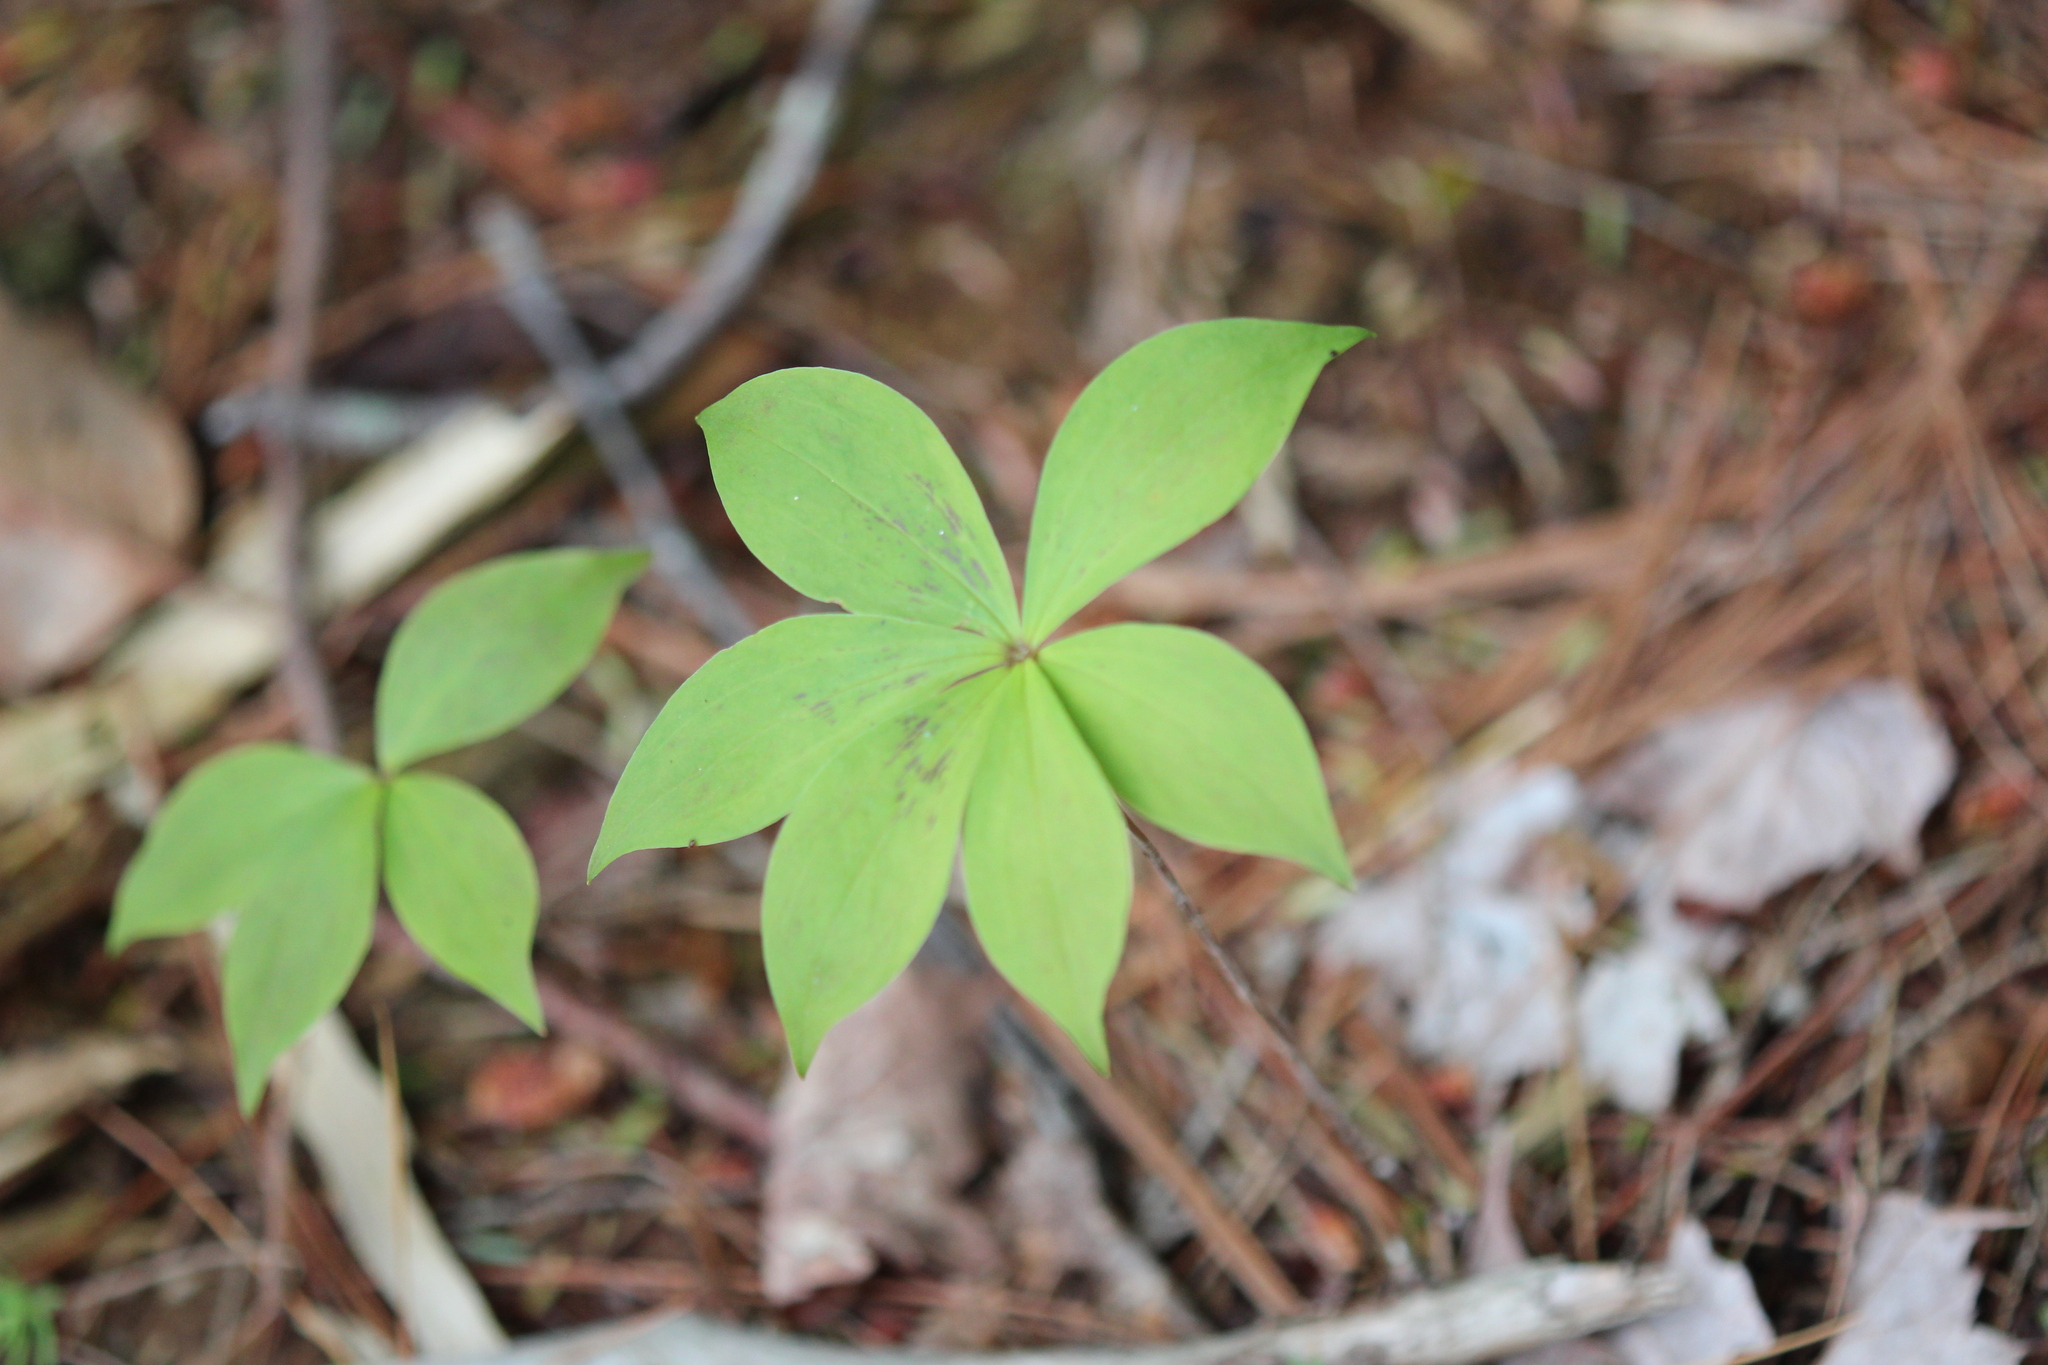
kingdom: Plantae
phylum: Tracheophyta
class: Liliopsida
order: Liliales
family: Liliaceae
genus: Medeola
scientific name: Medeola virginiana
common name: Indian cucumber-root
